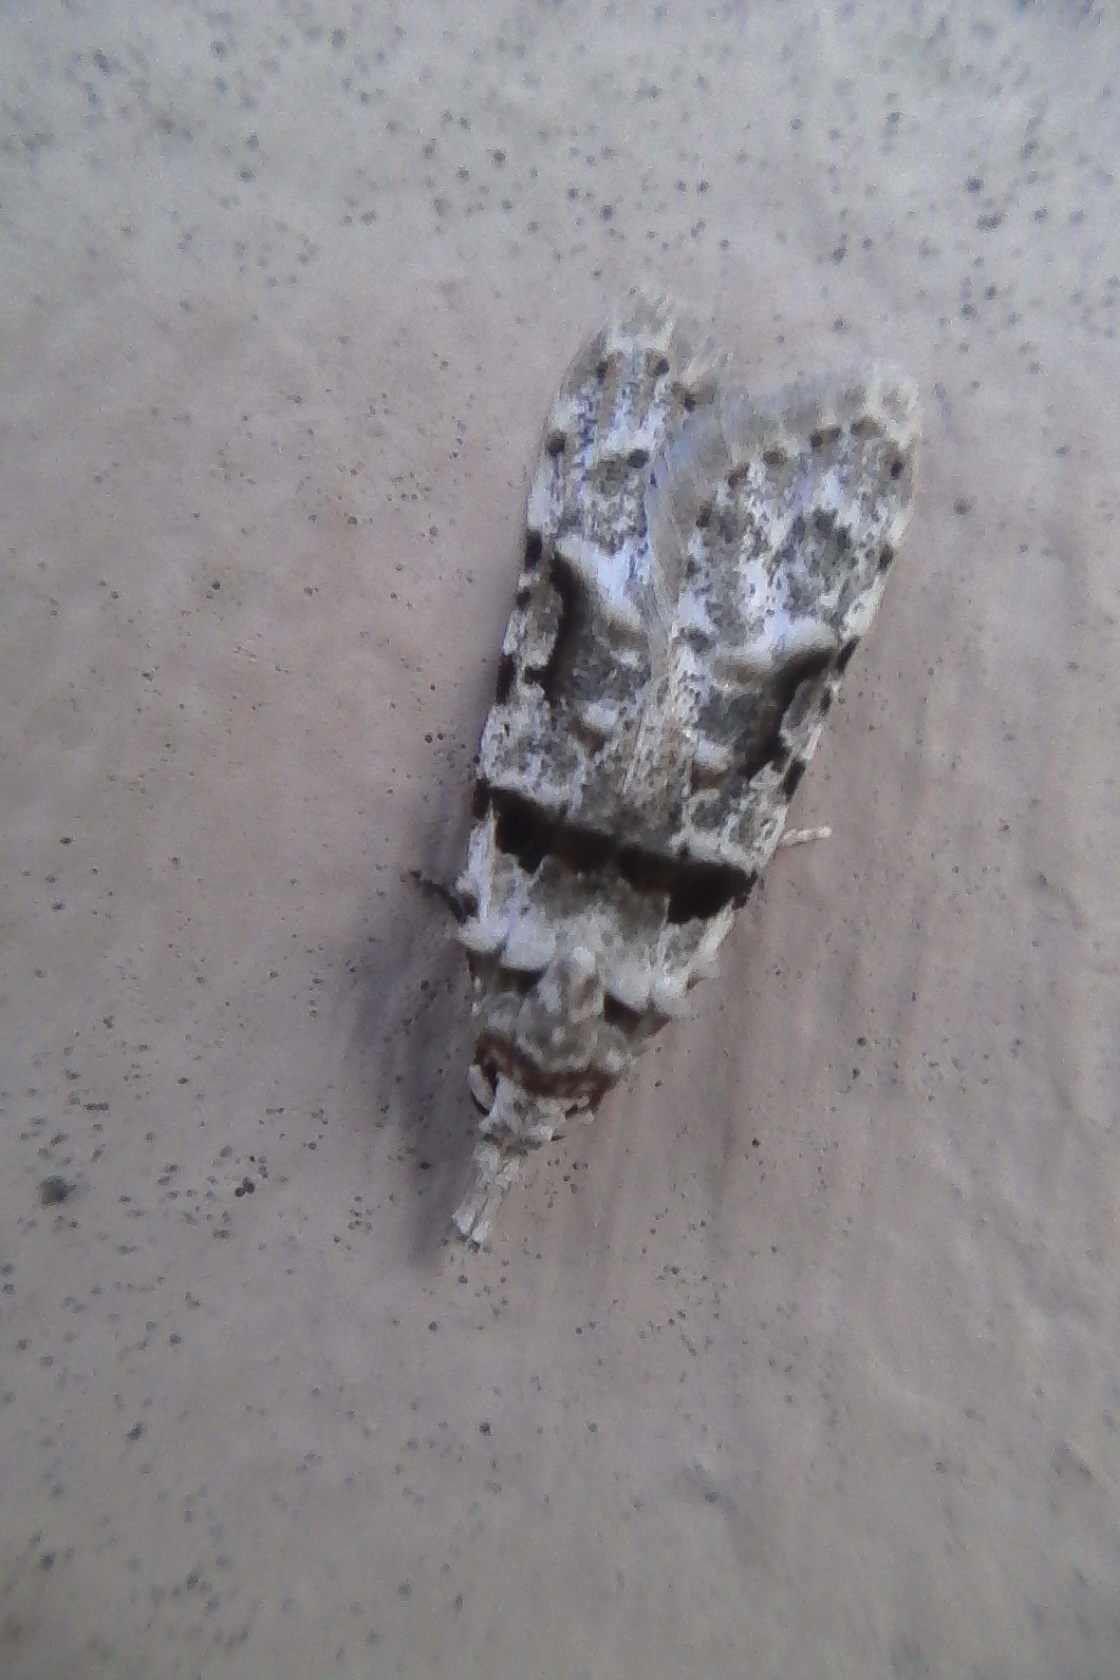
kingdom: Animalia
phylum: Arthropoda
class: Insecta
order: Lepidoptera
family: Carposinidae
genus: Coscinoptycha
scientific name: Coscinoptycha improbana
